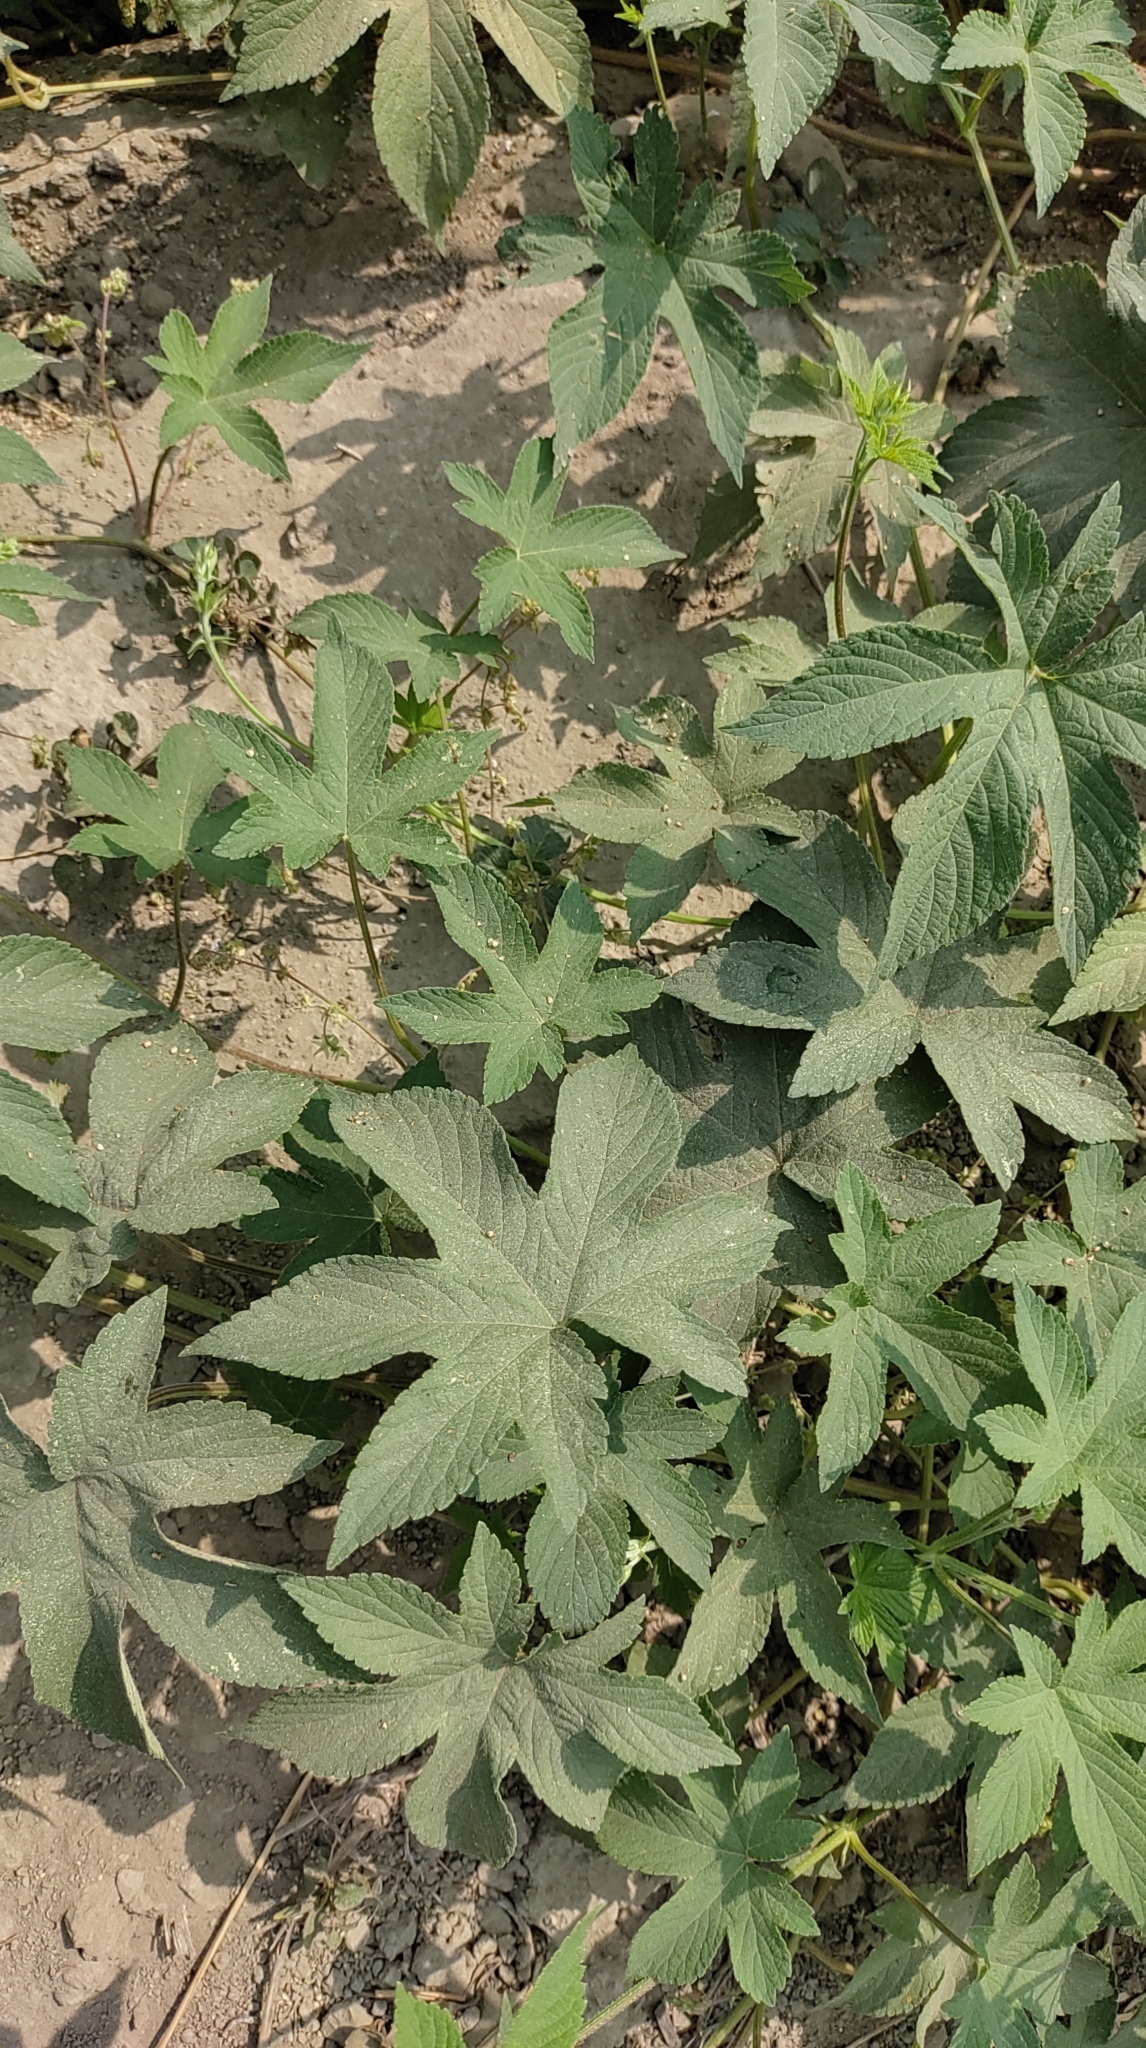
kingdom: Plantae
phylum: Tracheophyta
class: Magnoliopsida
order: Rosales
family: Cannabaceae
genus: Humulus
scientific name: Humulus scandens
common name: Japanese hop
